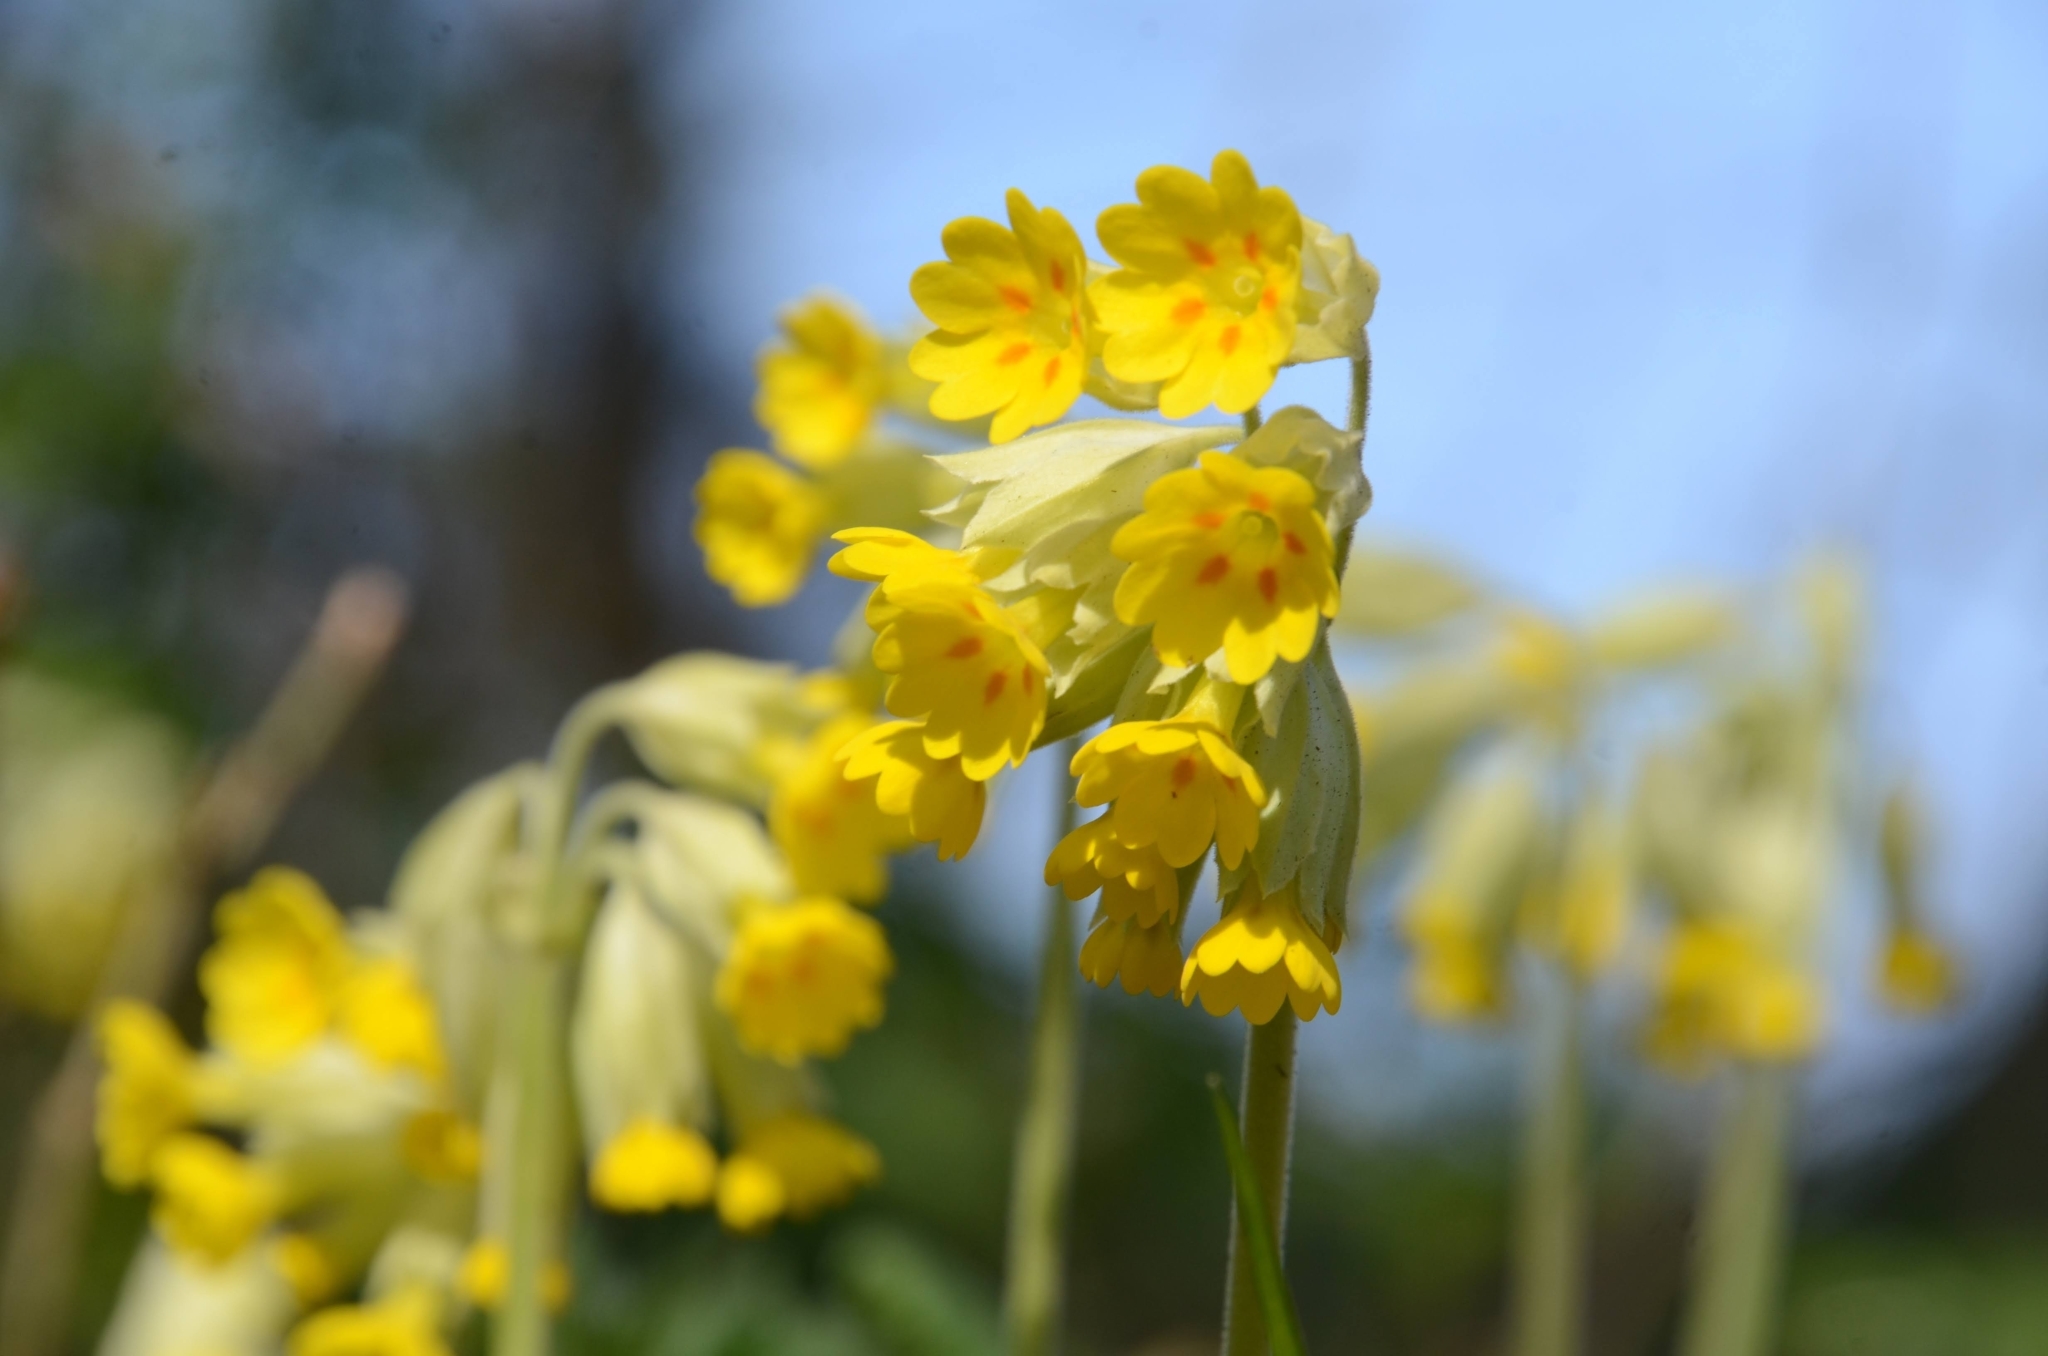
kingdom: Plantae
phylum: Tracheophyta
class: Magnoliopsida
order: Ericales
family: Primulaceae
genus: Primula
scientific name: Primula veris
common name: Cowslip
